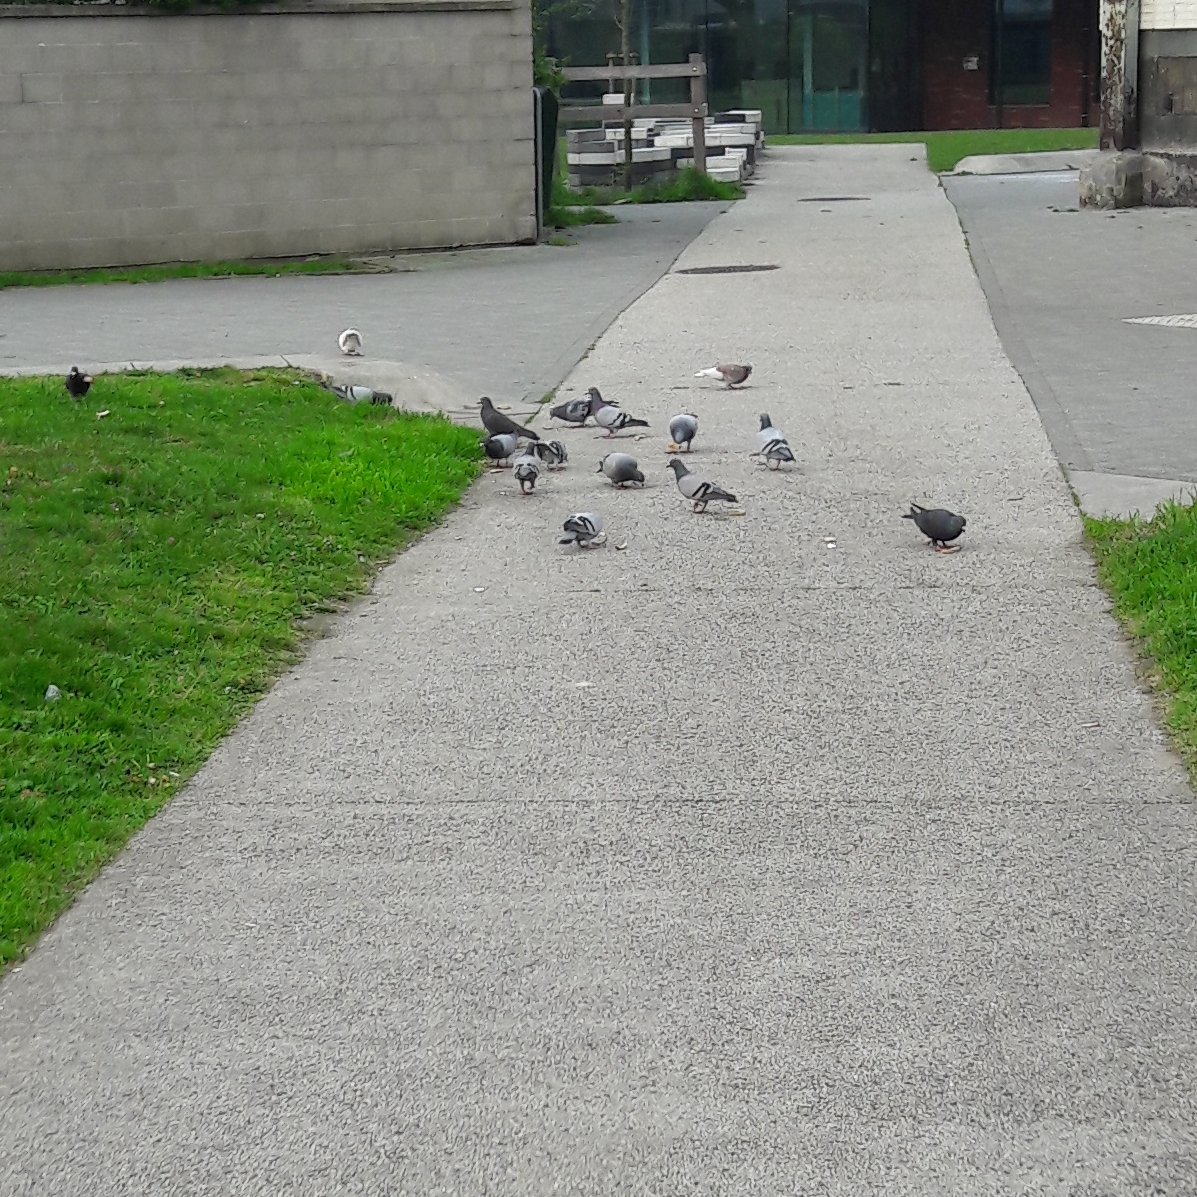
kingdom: Animalia
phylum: Chordata
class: Aves
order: Columbiformes
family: Columbidae
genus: Columba
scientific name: Columba livia
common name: Rock pigeon
